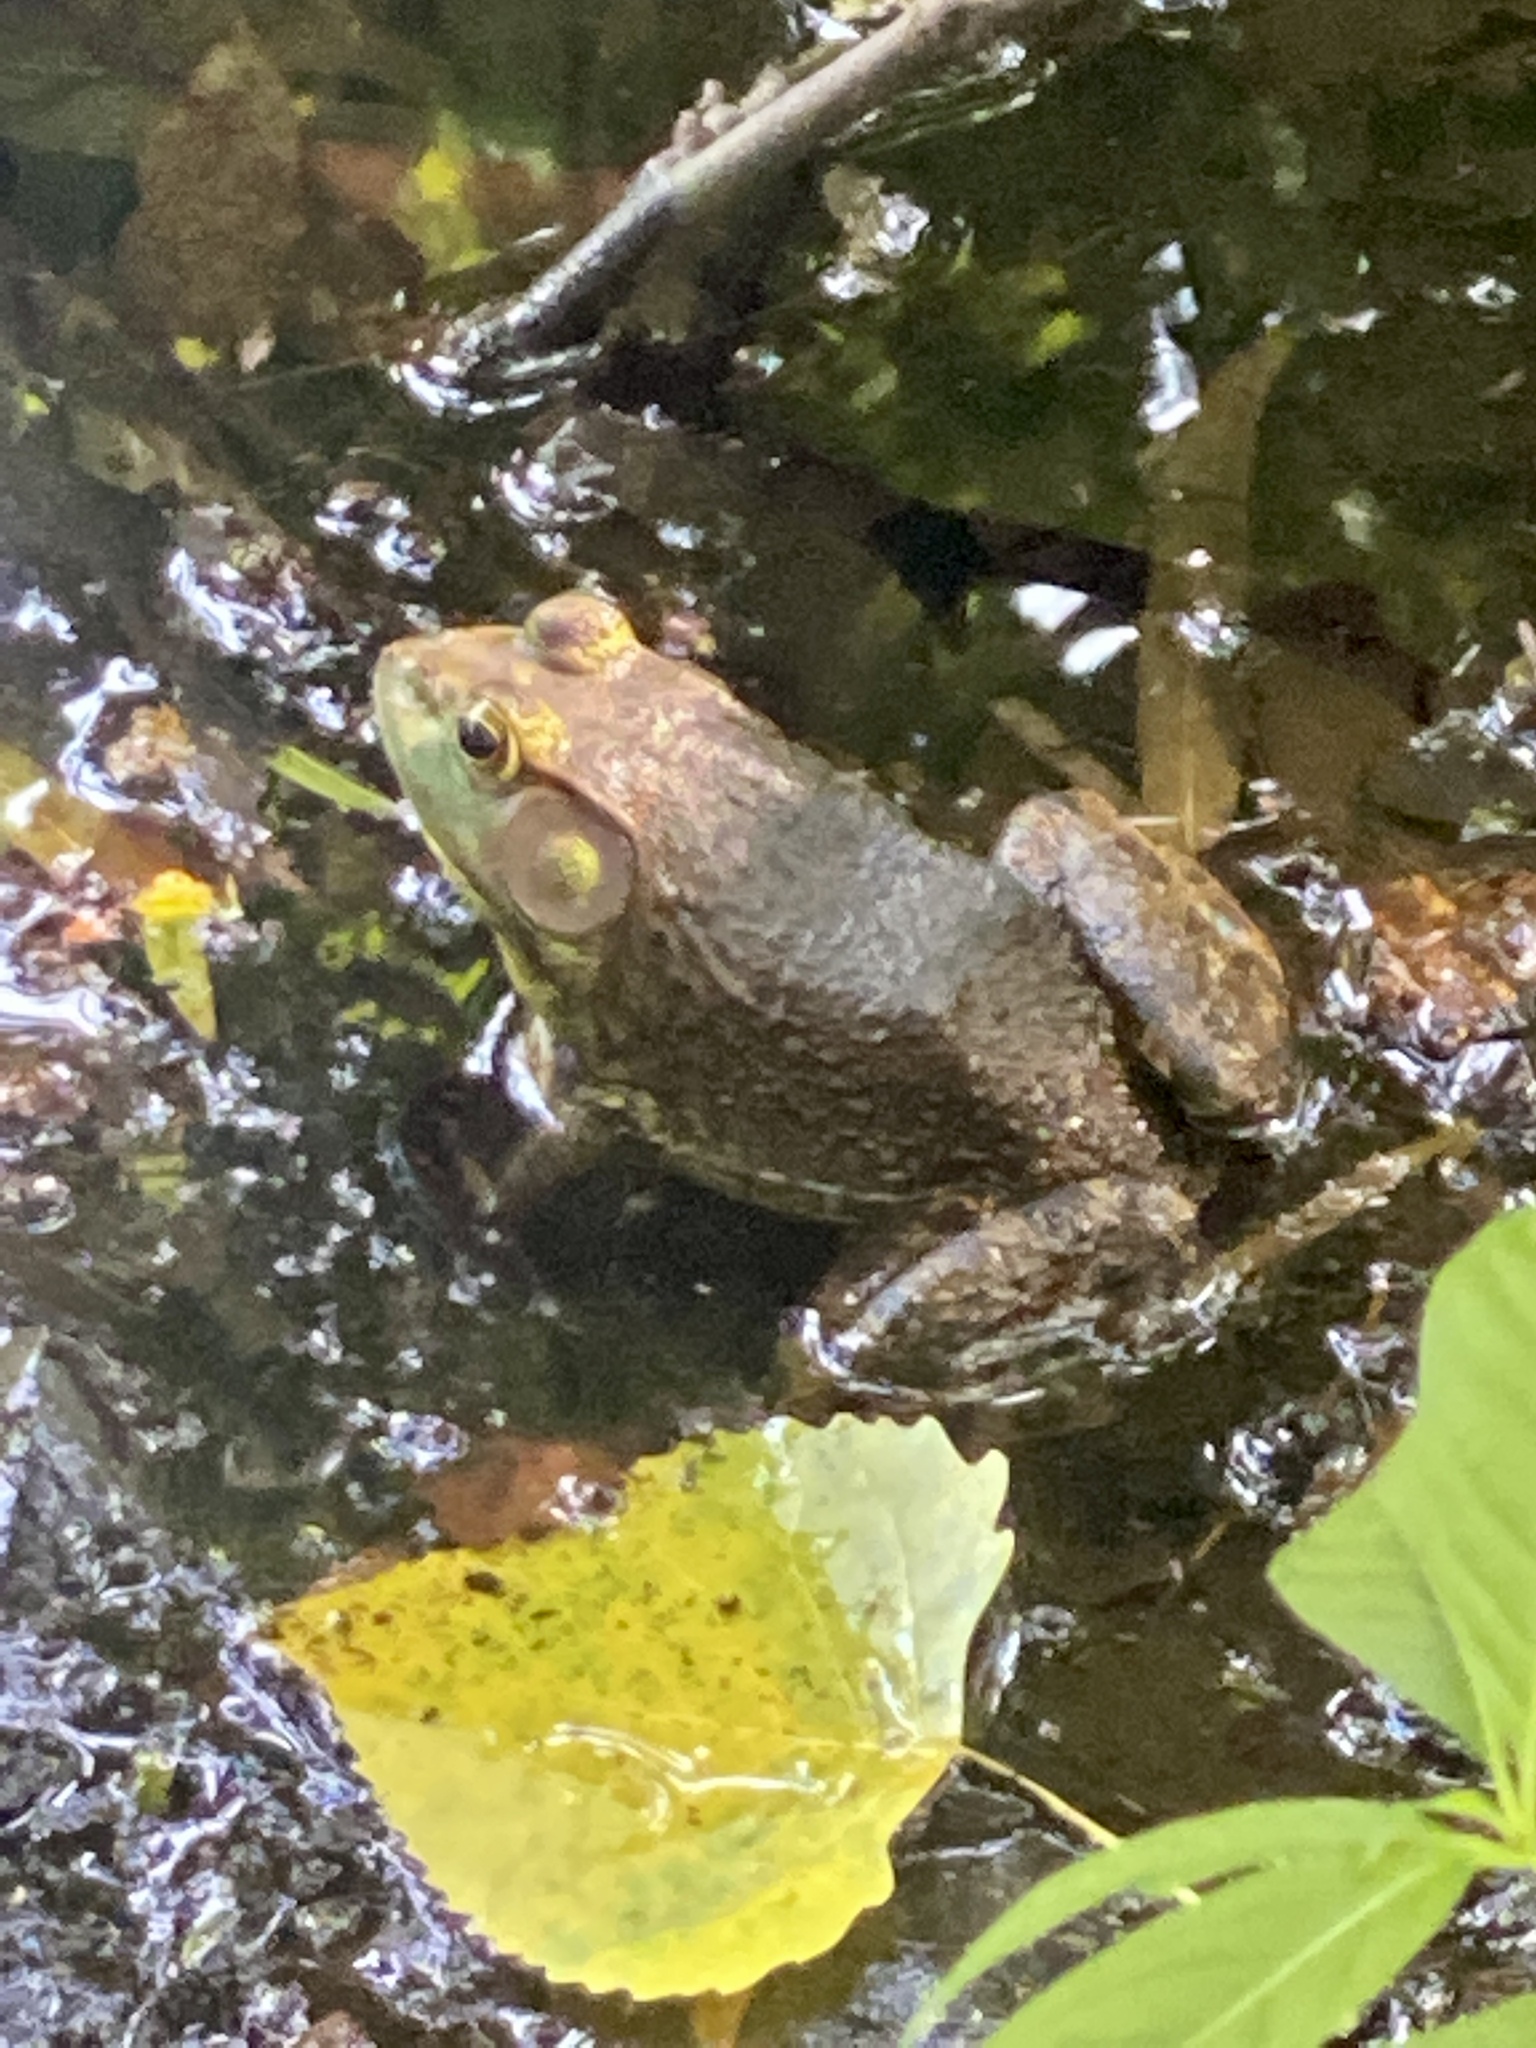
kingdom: Animalia
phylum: Chordata
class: Amphibia
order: Anura
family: Ranidae
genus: Lithobates
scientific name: Lithobates catesbeianus
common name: American bullfrog
